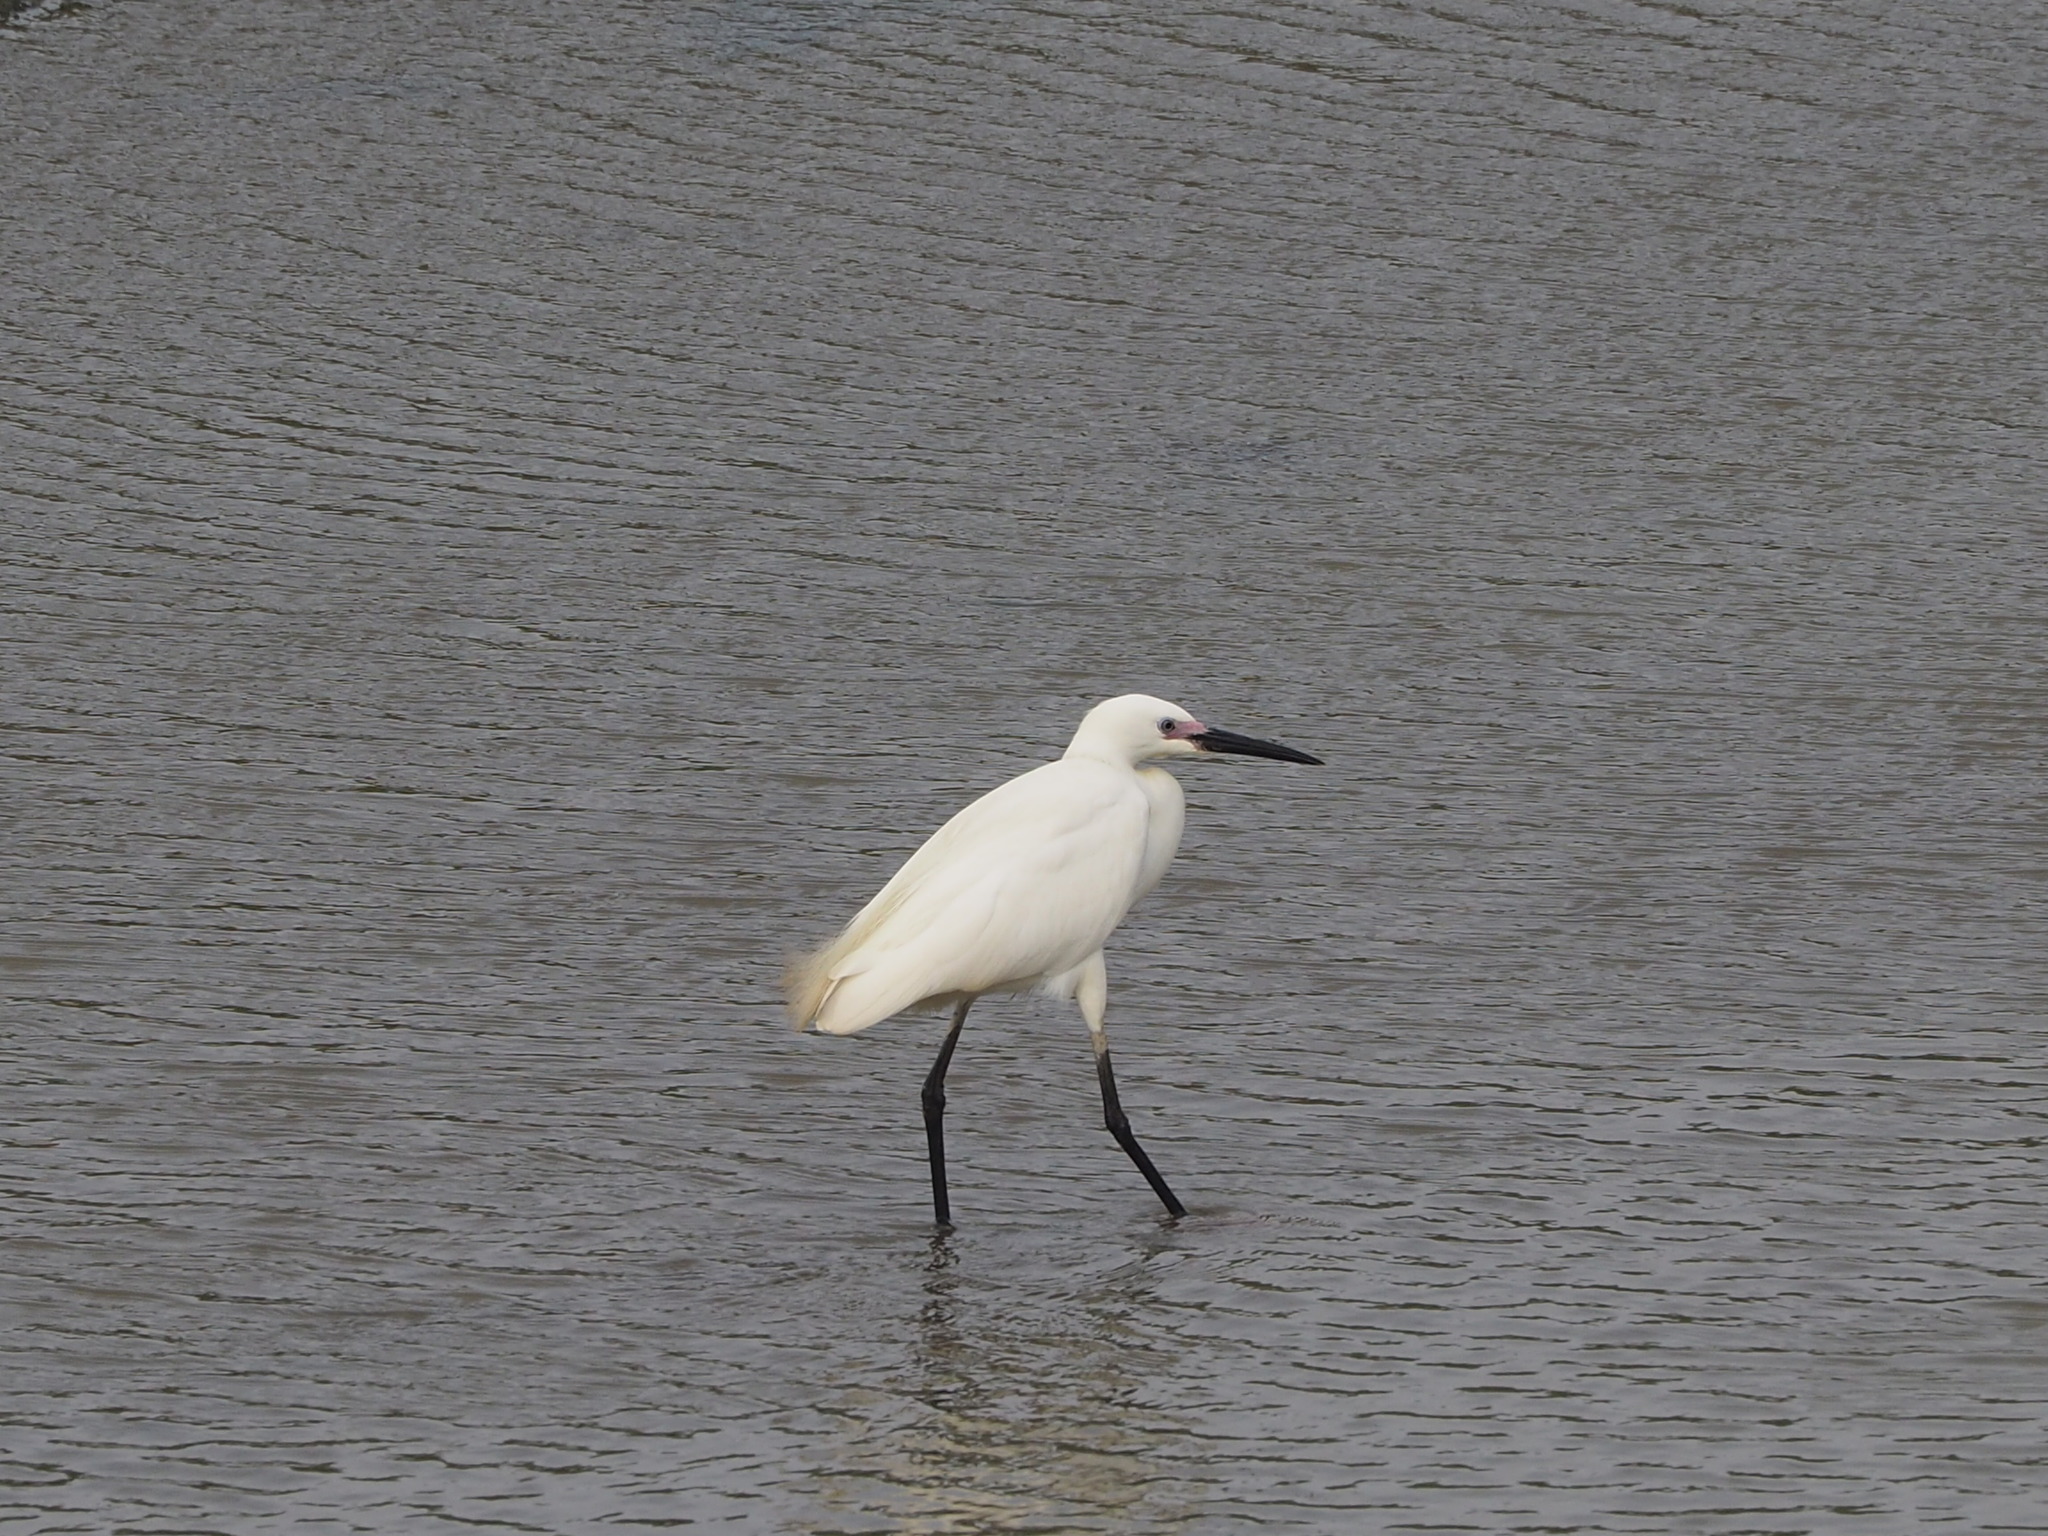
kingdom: Animalia
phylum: Chordata
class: Aves
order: Pelecaniformes
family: Ardeidae
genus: Egretta
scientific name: Egretta garzetta
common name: Little egret
